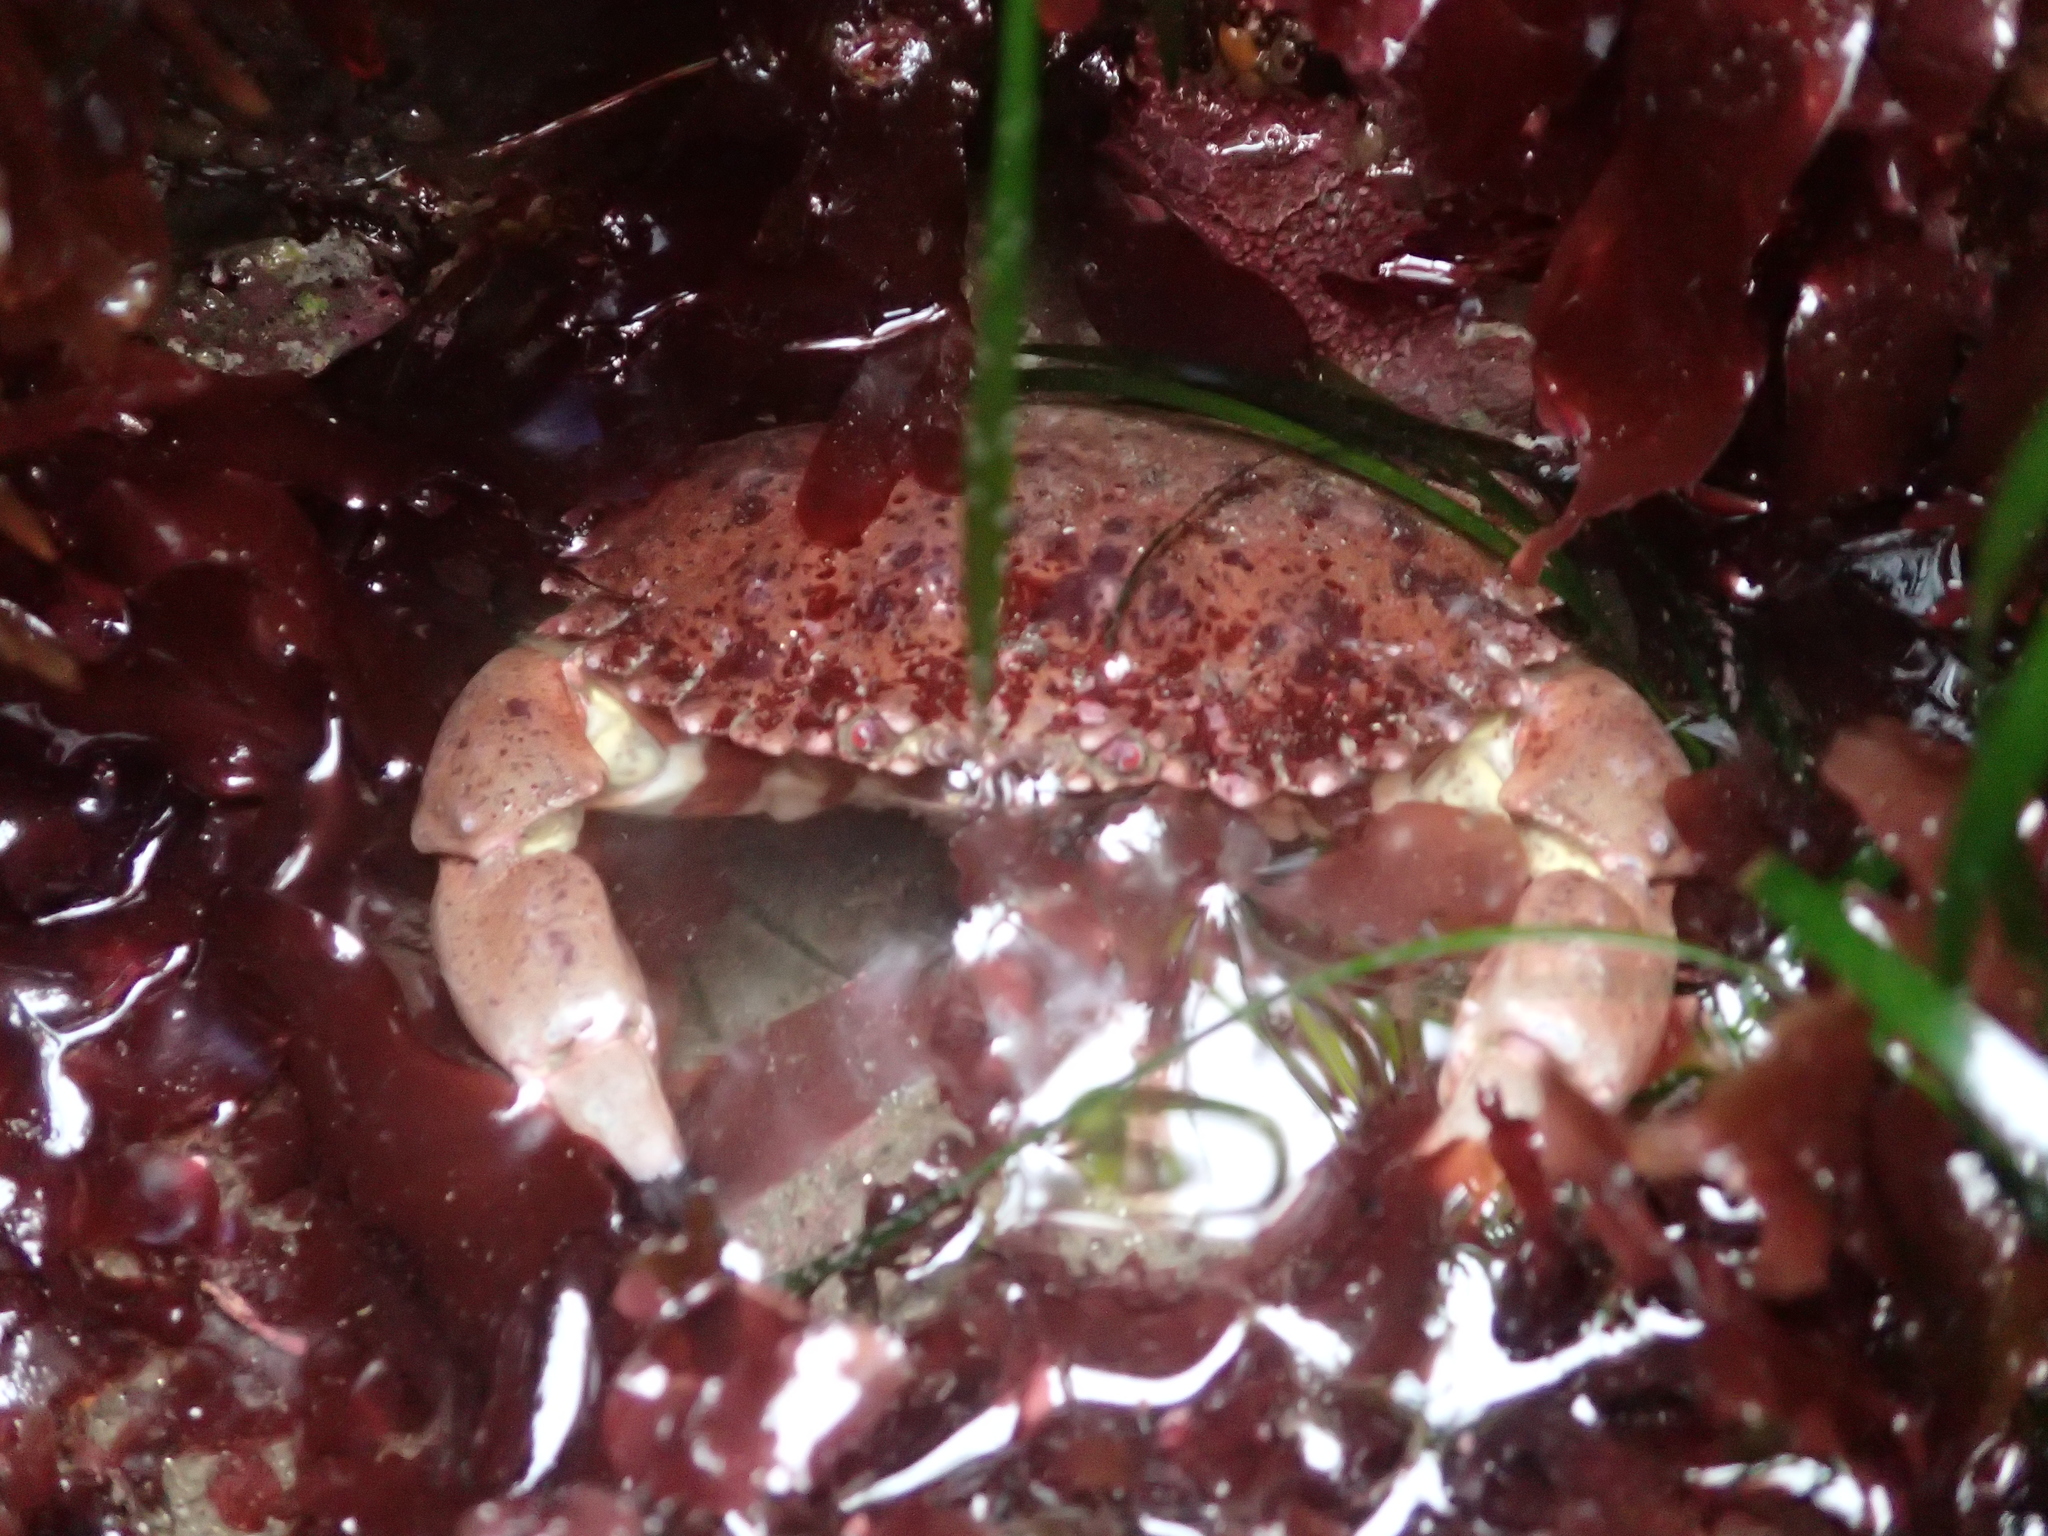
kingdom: Animalia
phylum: Arthropoda
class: Malacostraca
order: Decapoda
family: Cancridae
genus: Romaleon
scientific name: Romaleon antennarium
